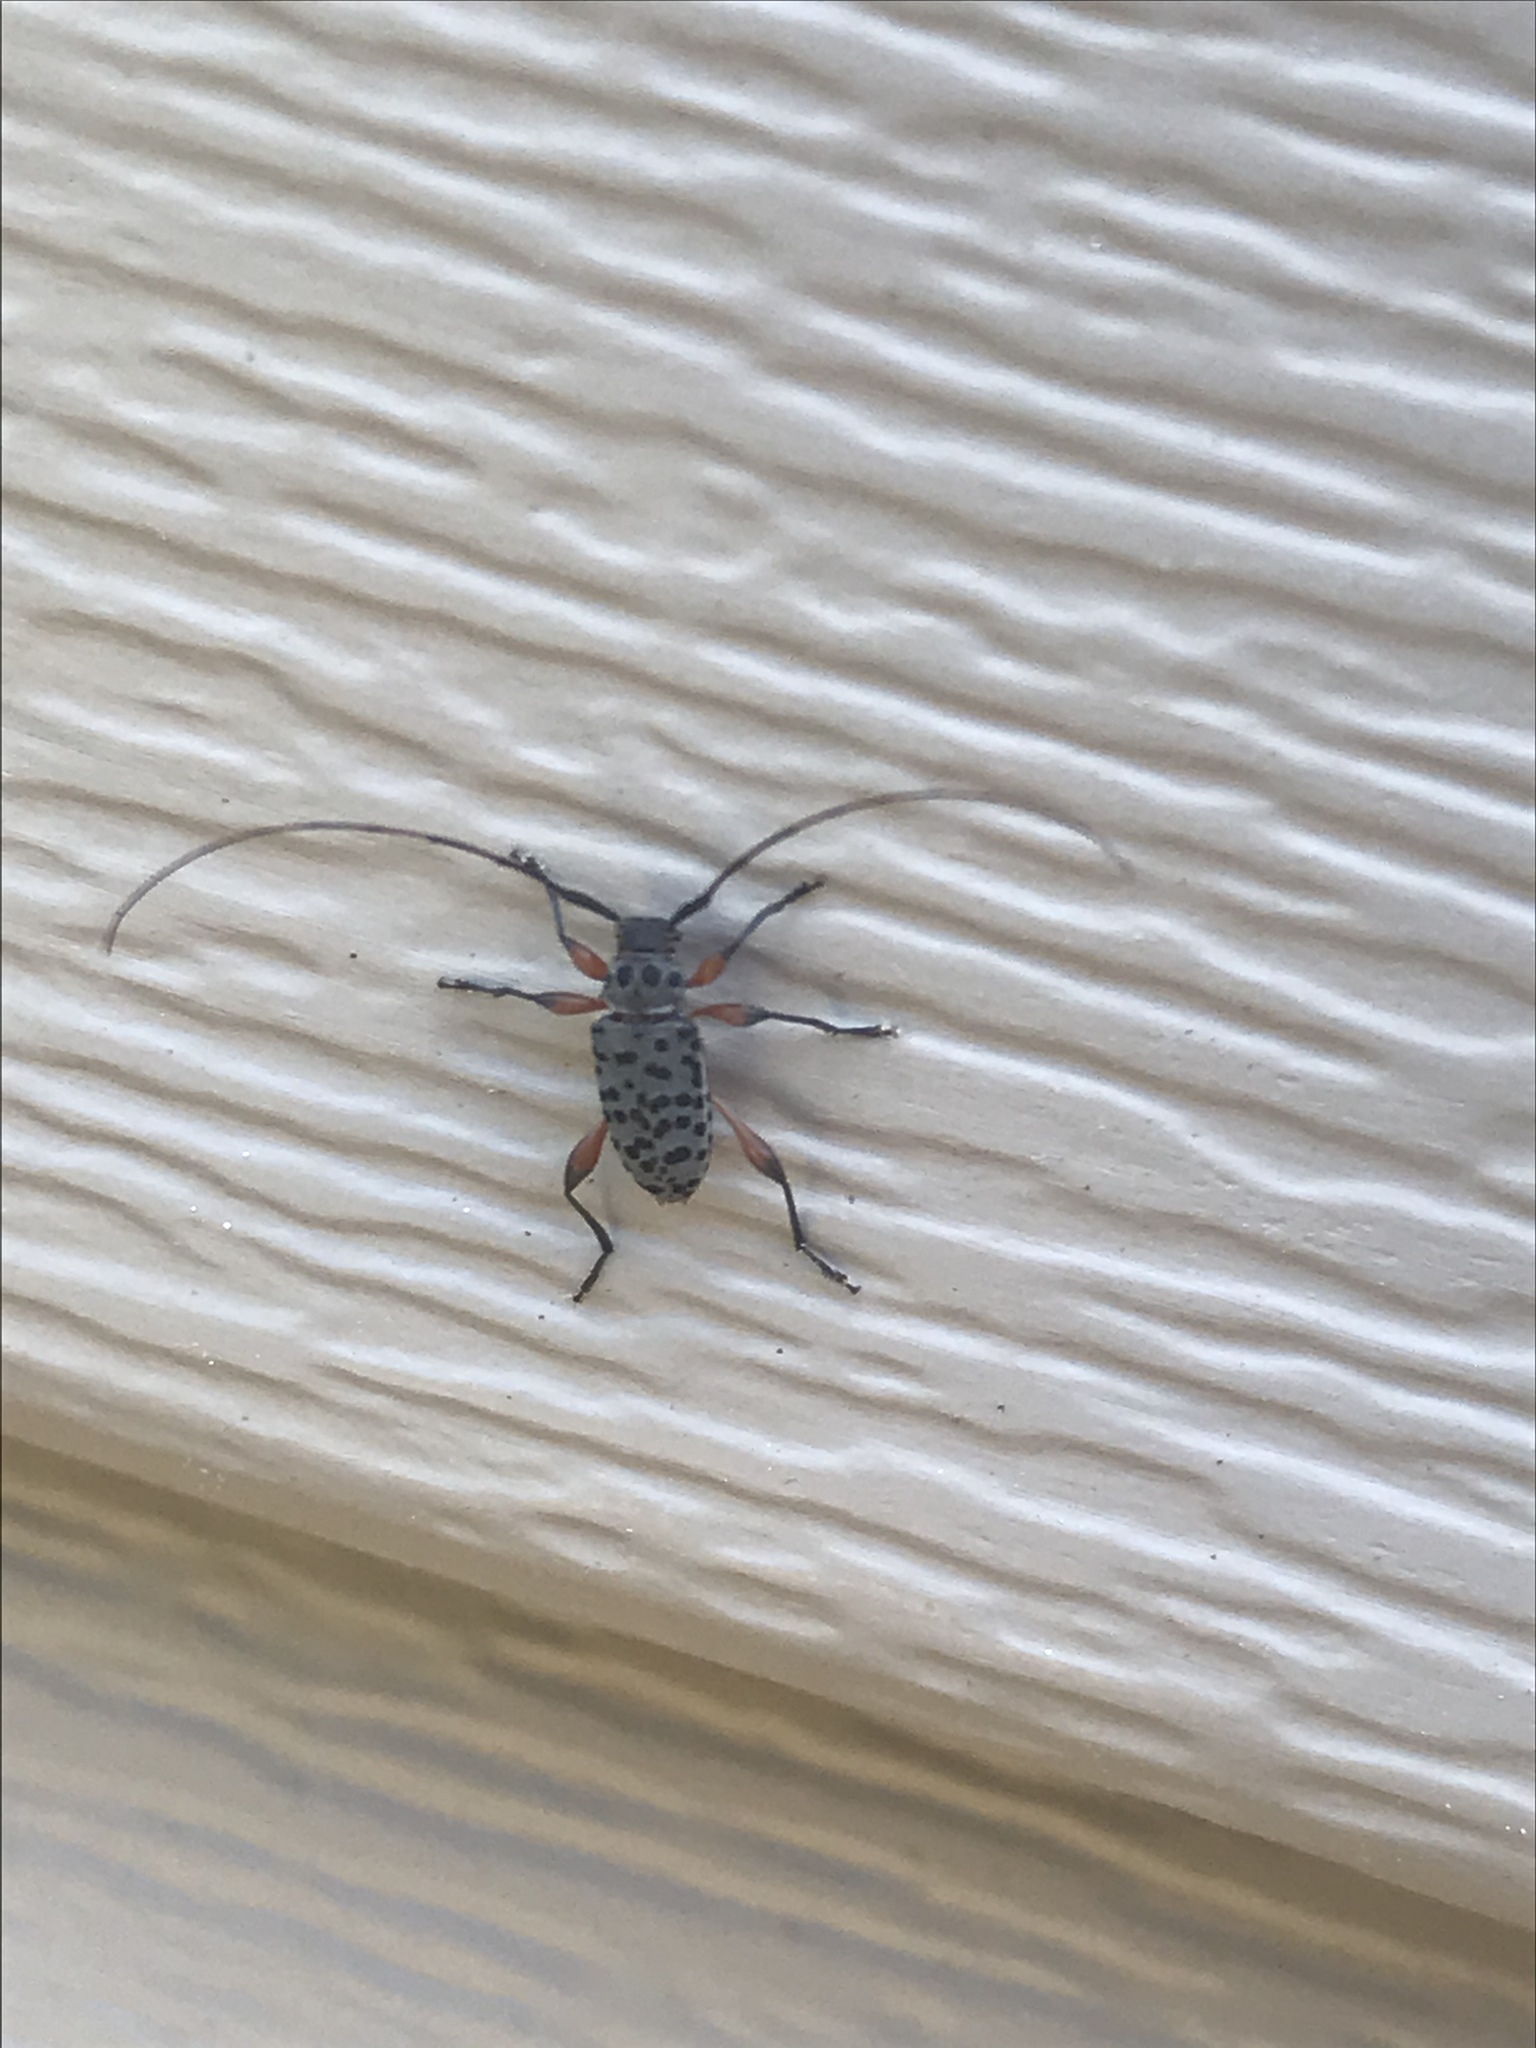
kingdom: Animalia
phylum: Arthropoda
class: Insecta
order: Coleoptera
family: Cerambycidae
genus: Hyperplatys
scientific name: Hyperplatys aspersa
